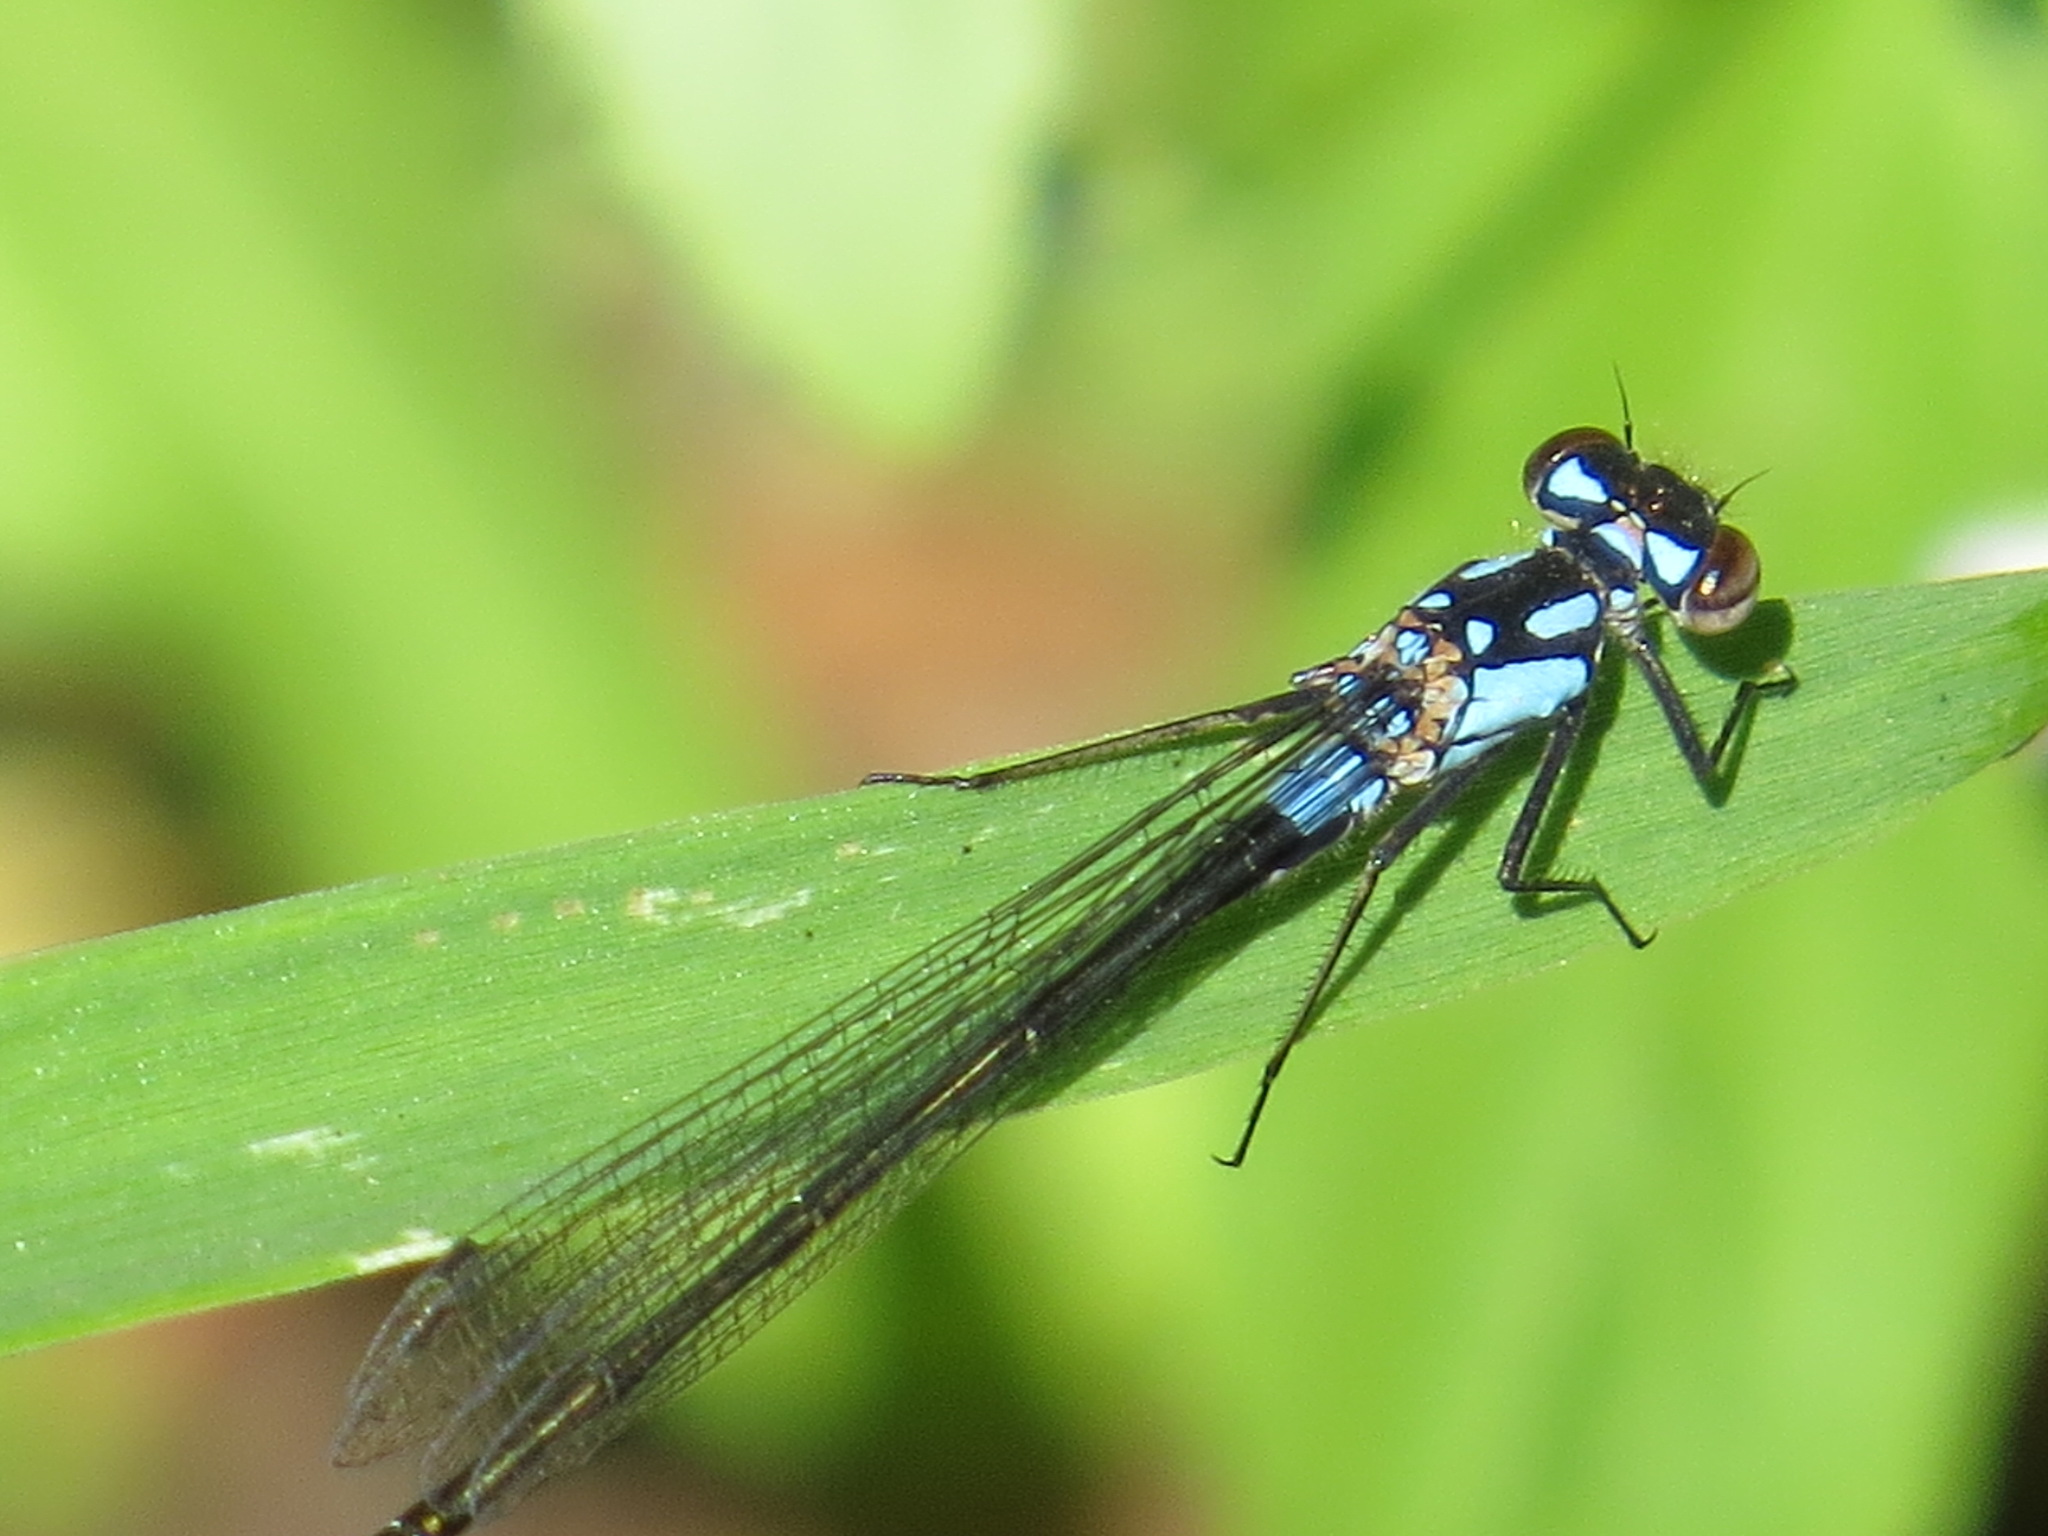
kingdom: Animalia
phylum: Arthropoda
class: Insecta
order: Odonata
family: Coenagrionidae
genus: Zoniagrion
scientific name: Zoniagrion exclamationis
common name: Exclamation damsel
